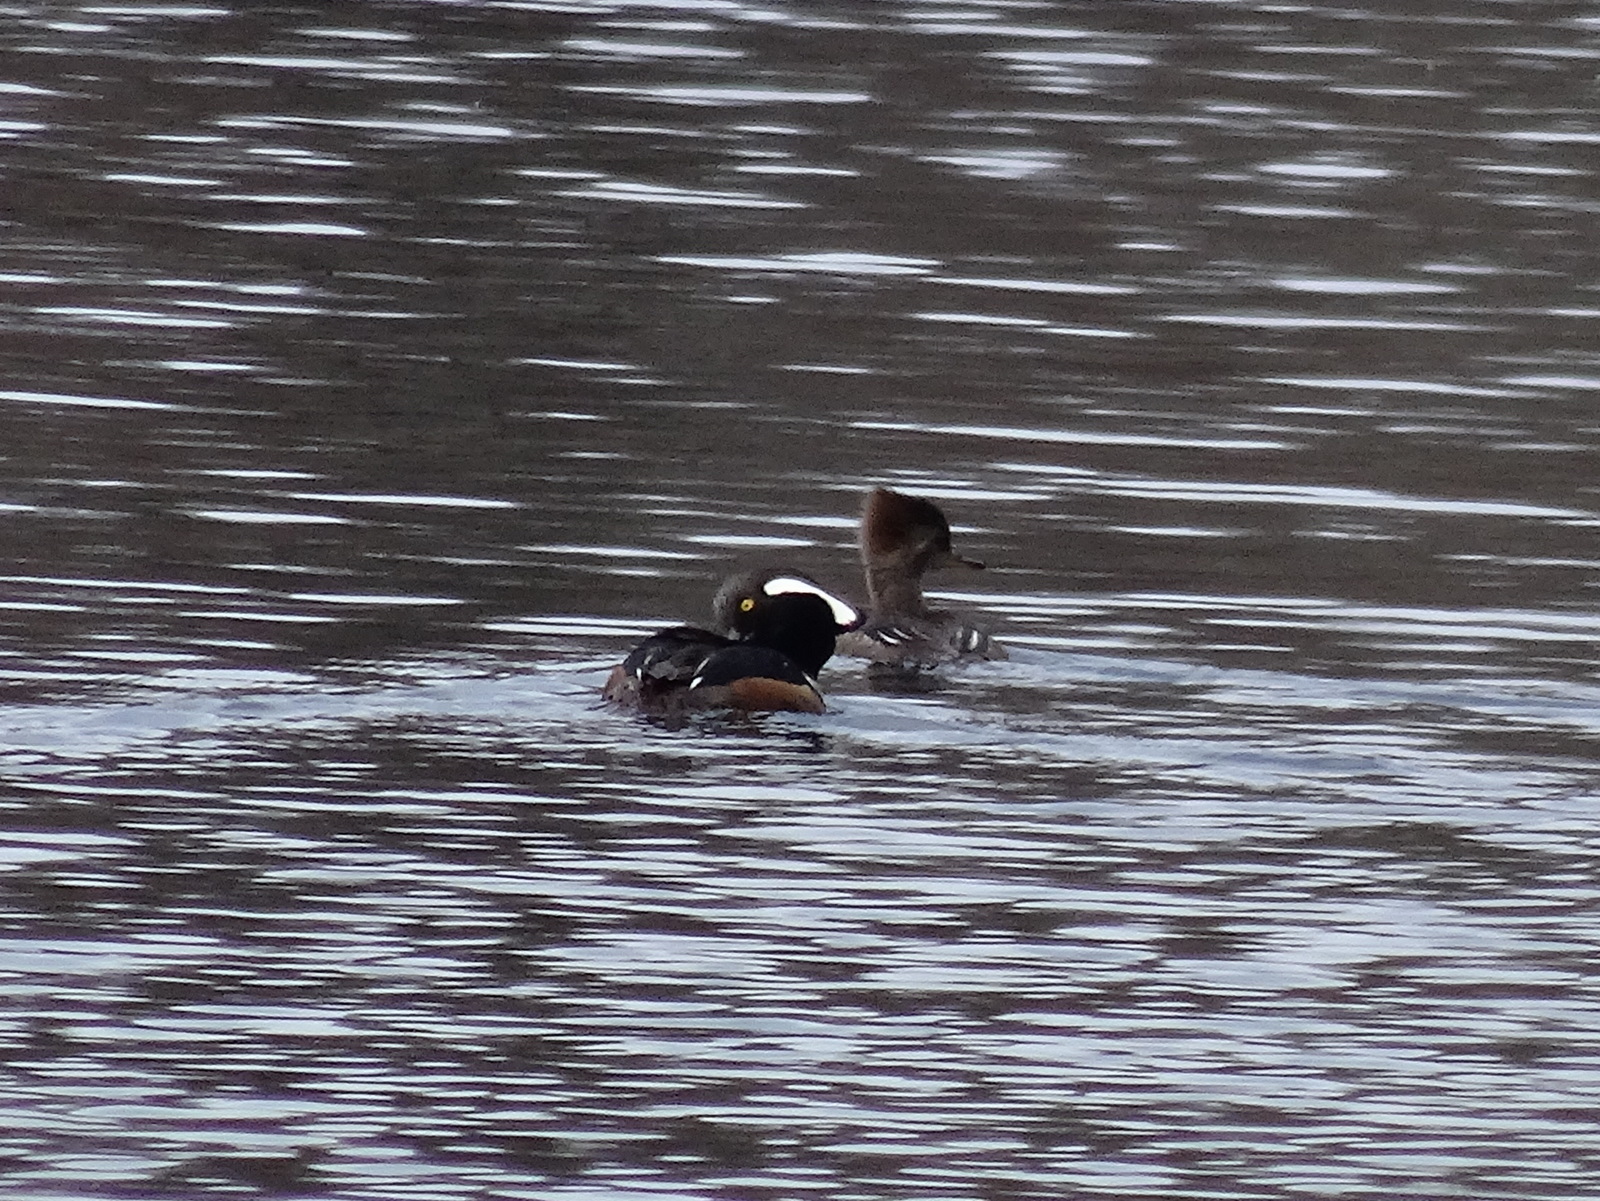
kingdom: Animalia
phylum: Chordata
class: Aves
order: Anseriformes
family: Anatidae
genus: Lophodytes
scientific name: Lophodytes cucullatus
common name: Hooded merganser
